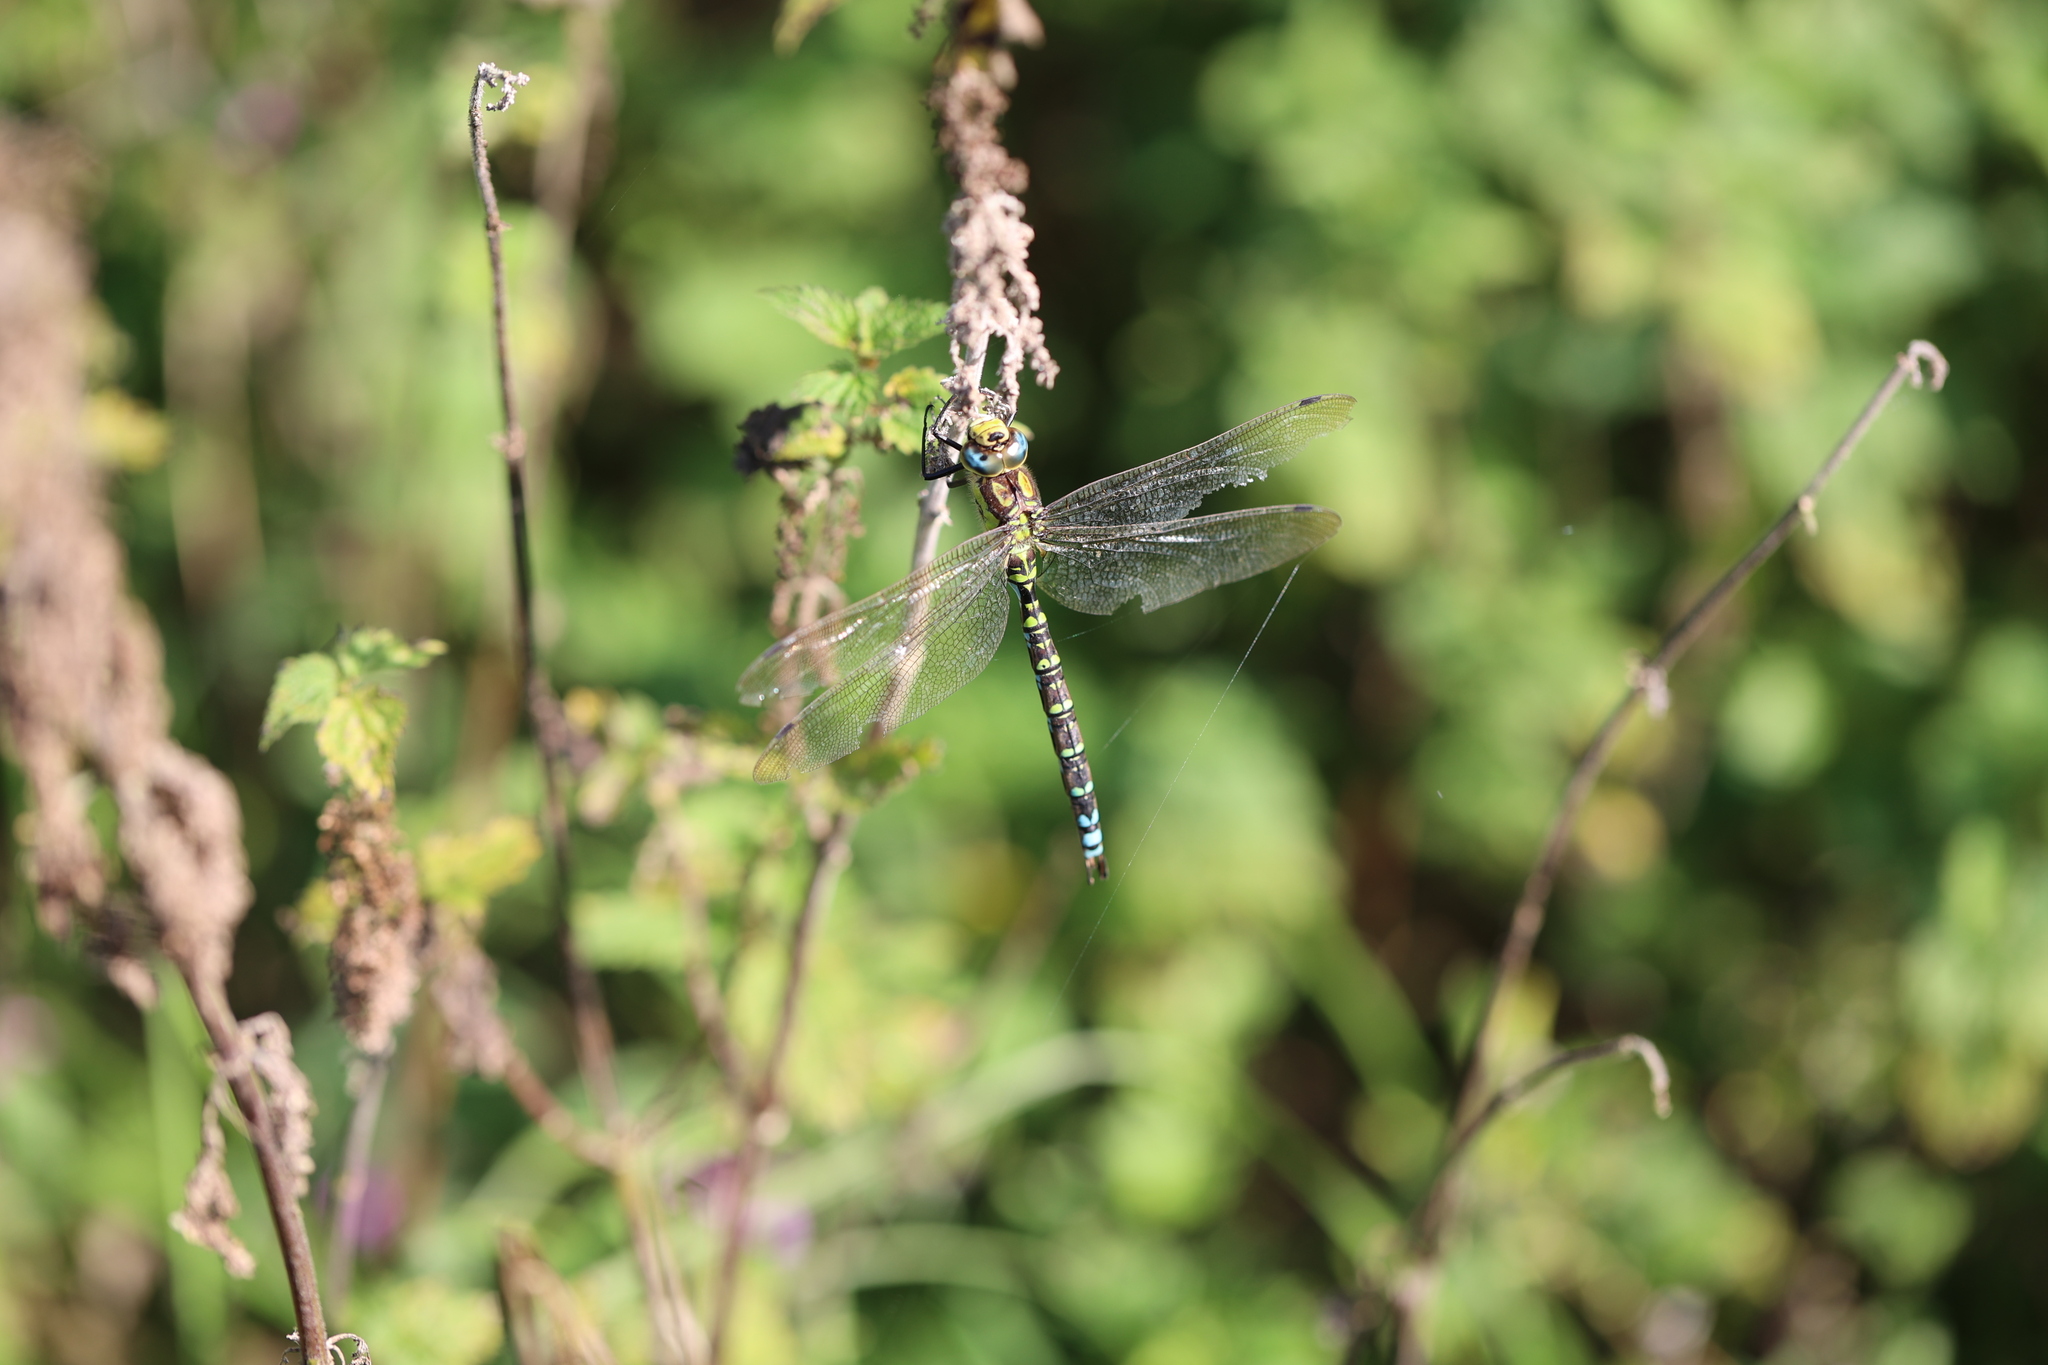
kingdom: Animalia
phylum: Arthropoda
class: Insecta
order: Odonata
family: Aeshnidae
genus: Aeshna
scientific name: Aeshna cyanea
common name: Southern hawker
